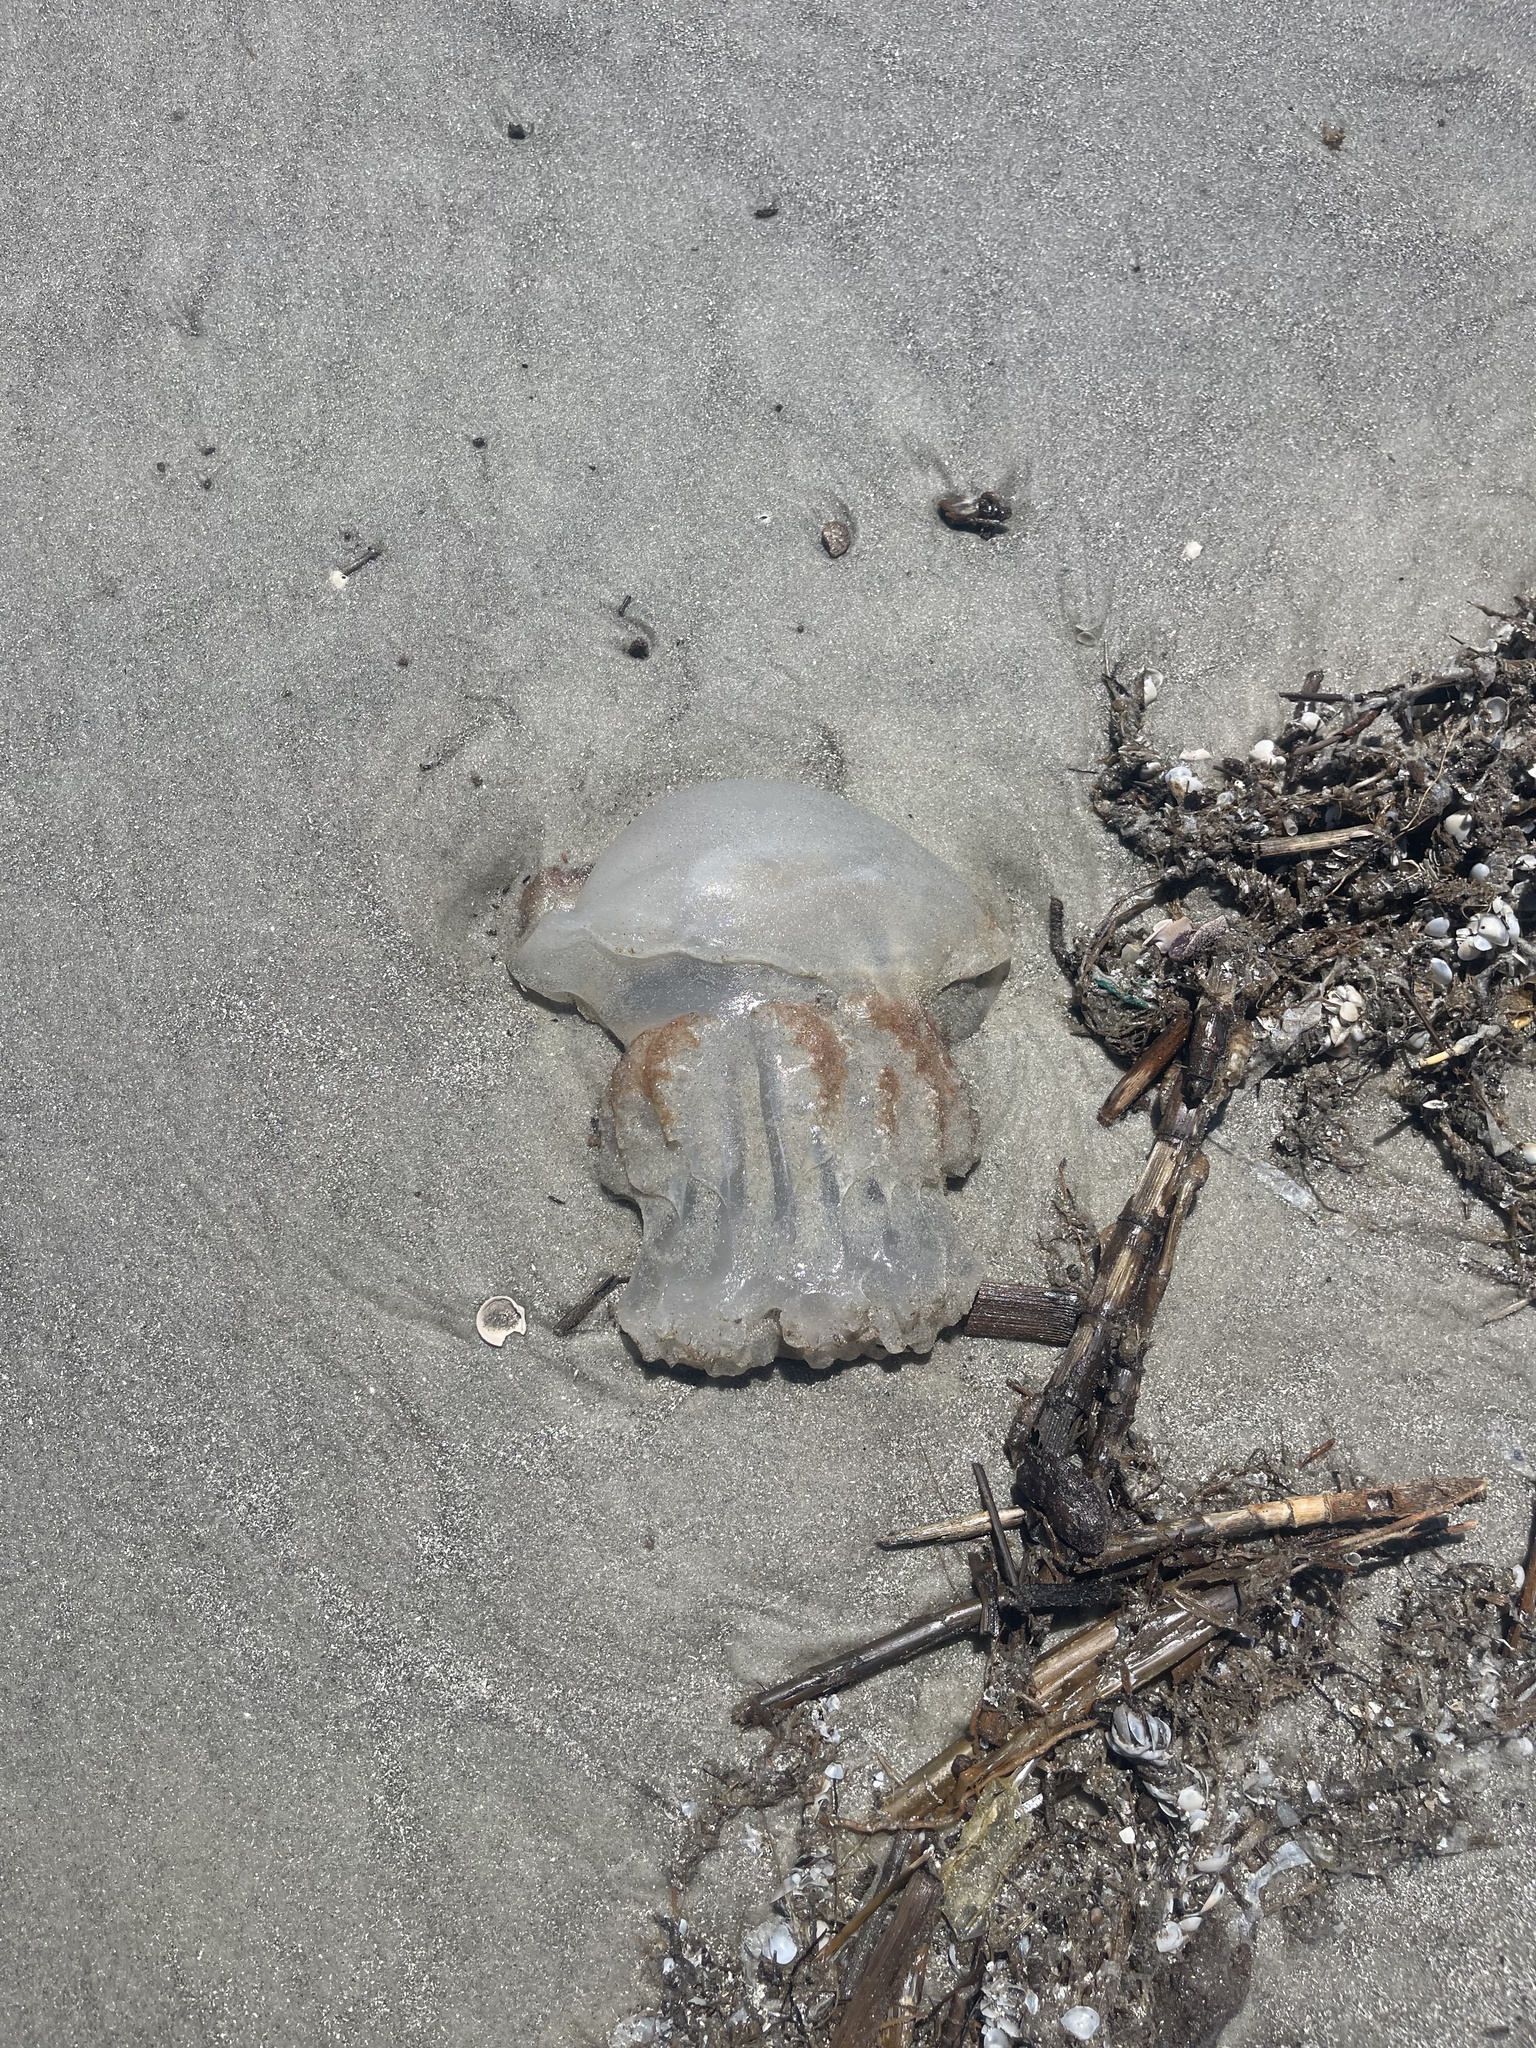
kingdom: Animalia
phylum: Cnidaria
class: Scyphozoa
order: Rhizostomeae
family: Stomolophidae
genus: Stomolophus
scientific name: Stomolophus meleagris
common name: Cabbagehead
